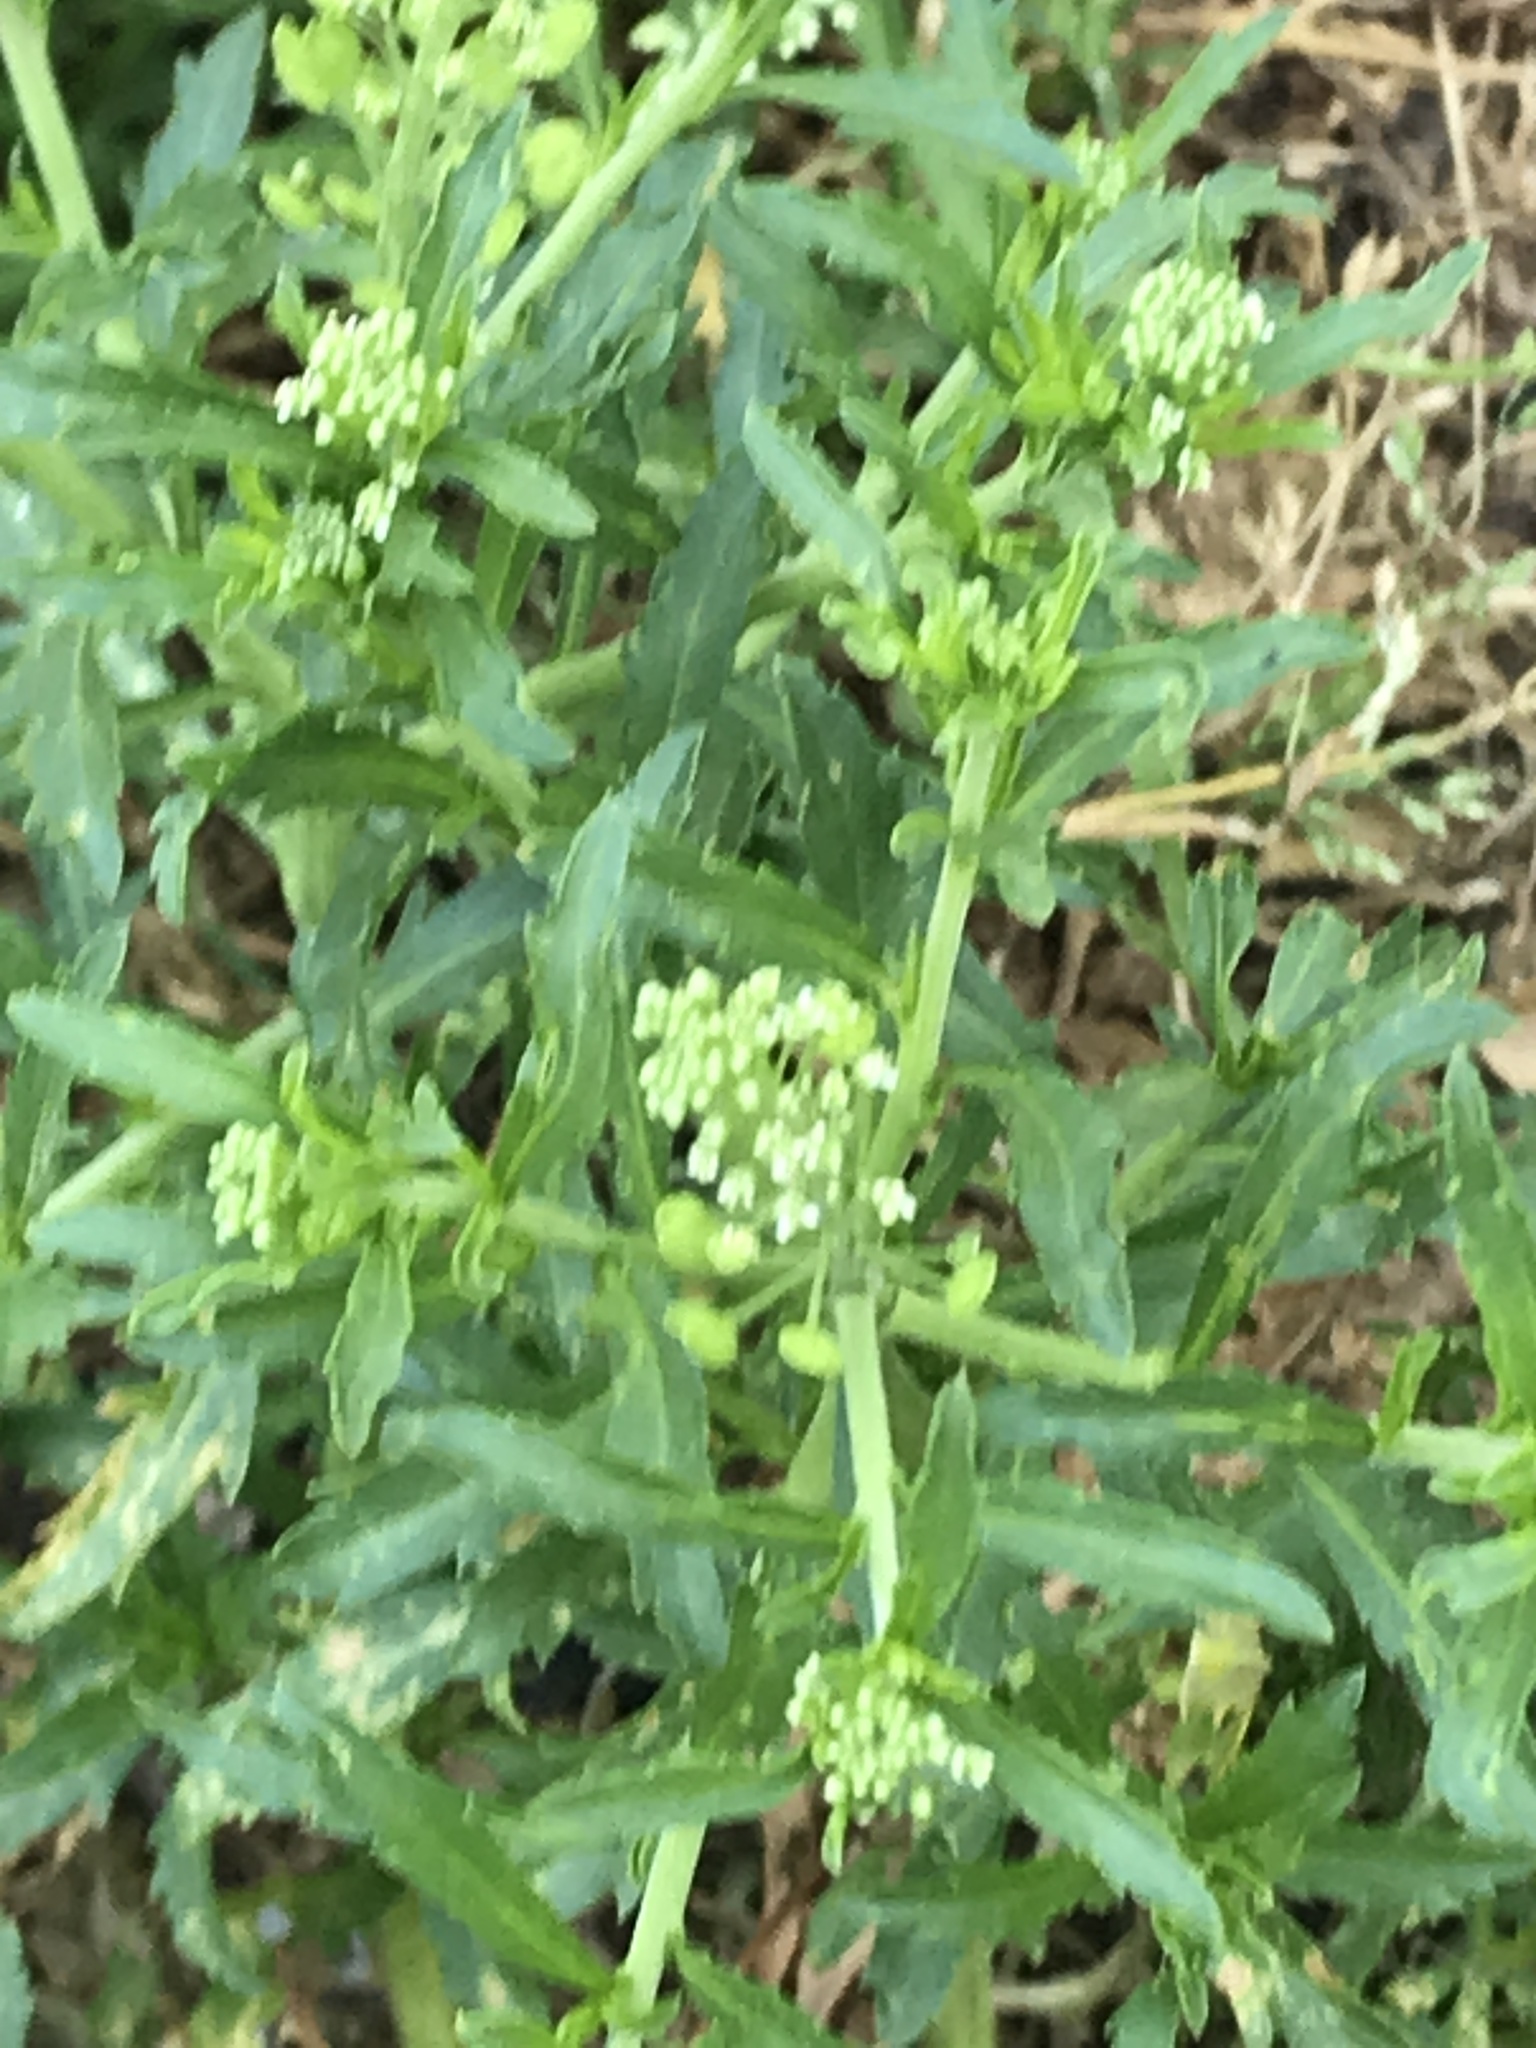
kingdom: Plantae
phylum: Tracheophyta
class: Magnoliopsida
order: Brassicales
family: Brassicaceae
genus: Lepidium
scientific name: Lepidium virginicum
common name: Least pepperwort
